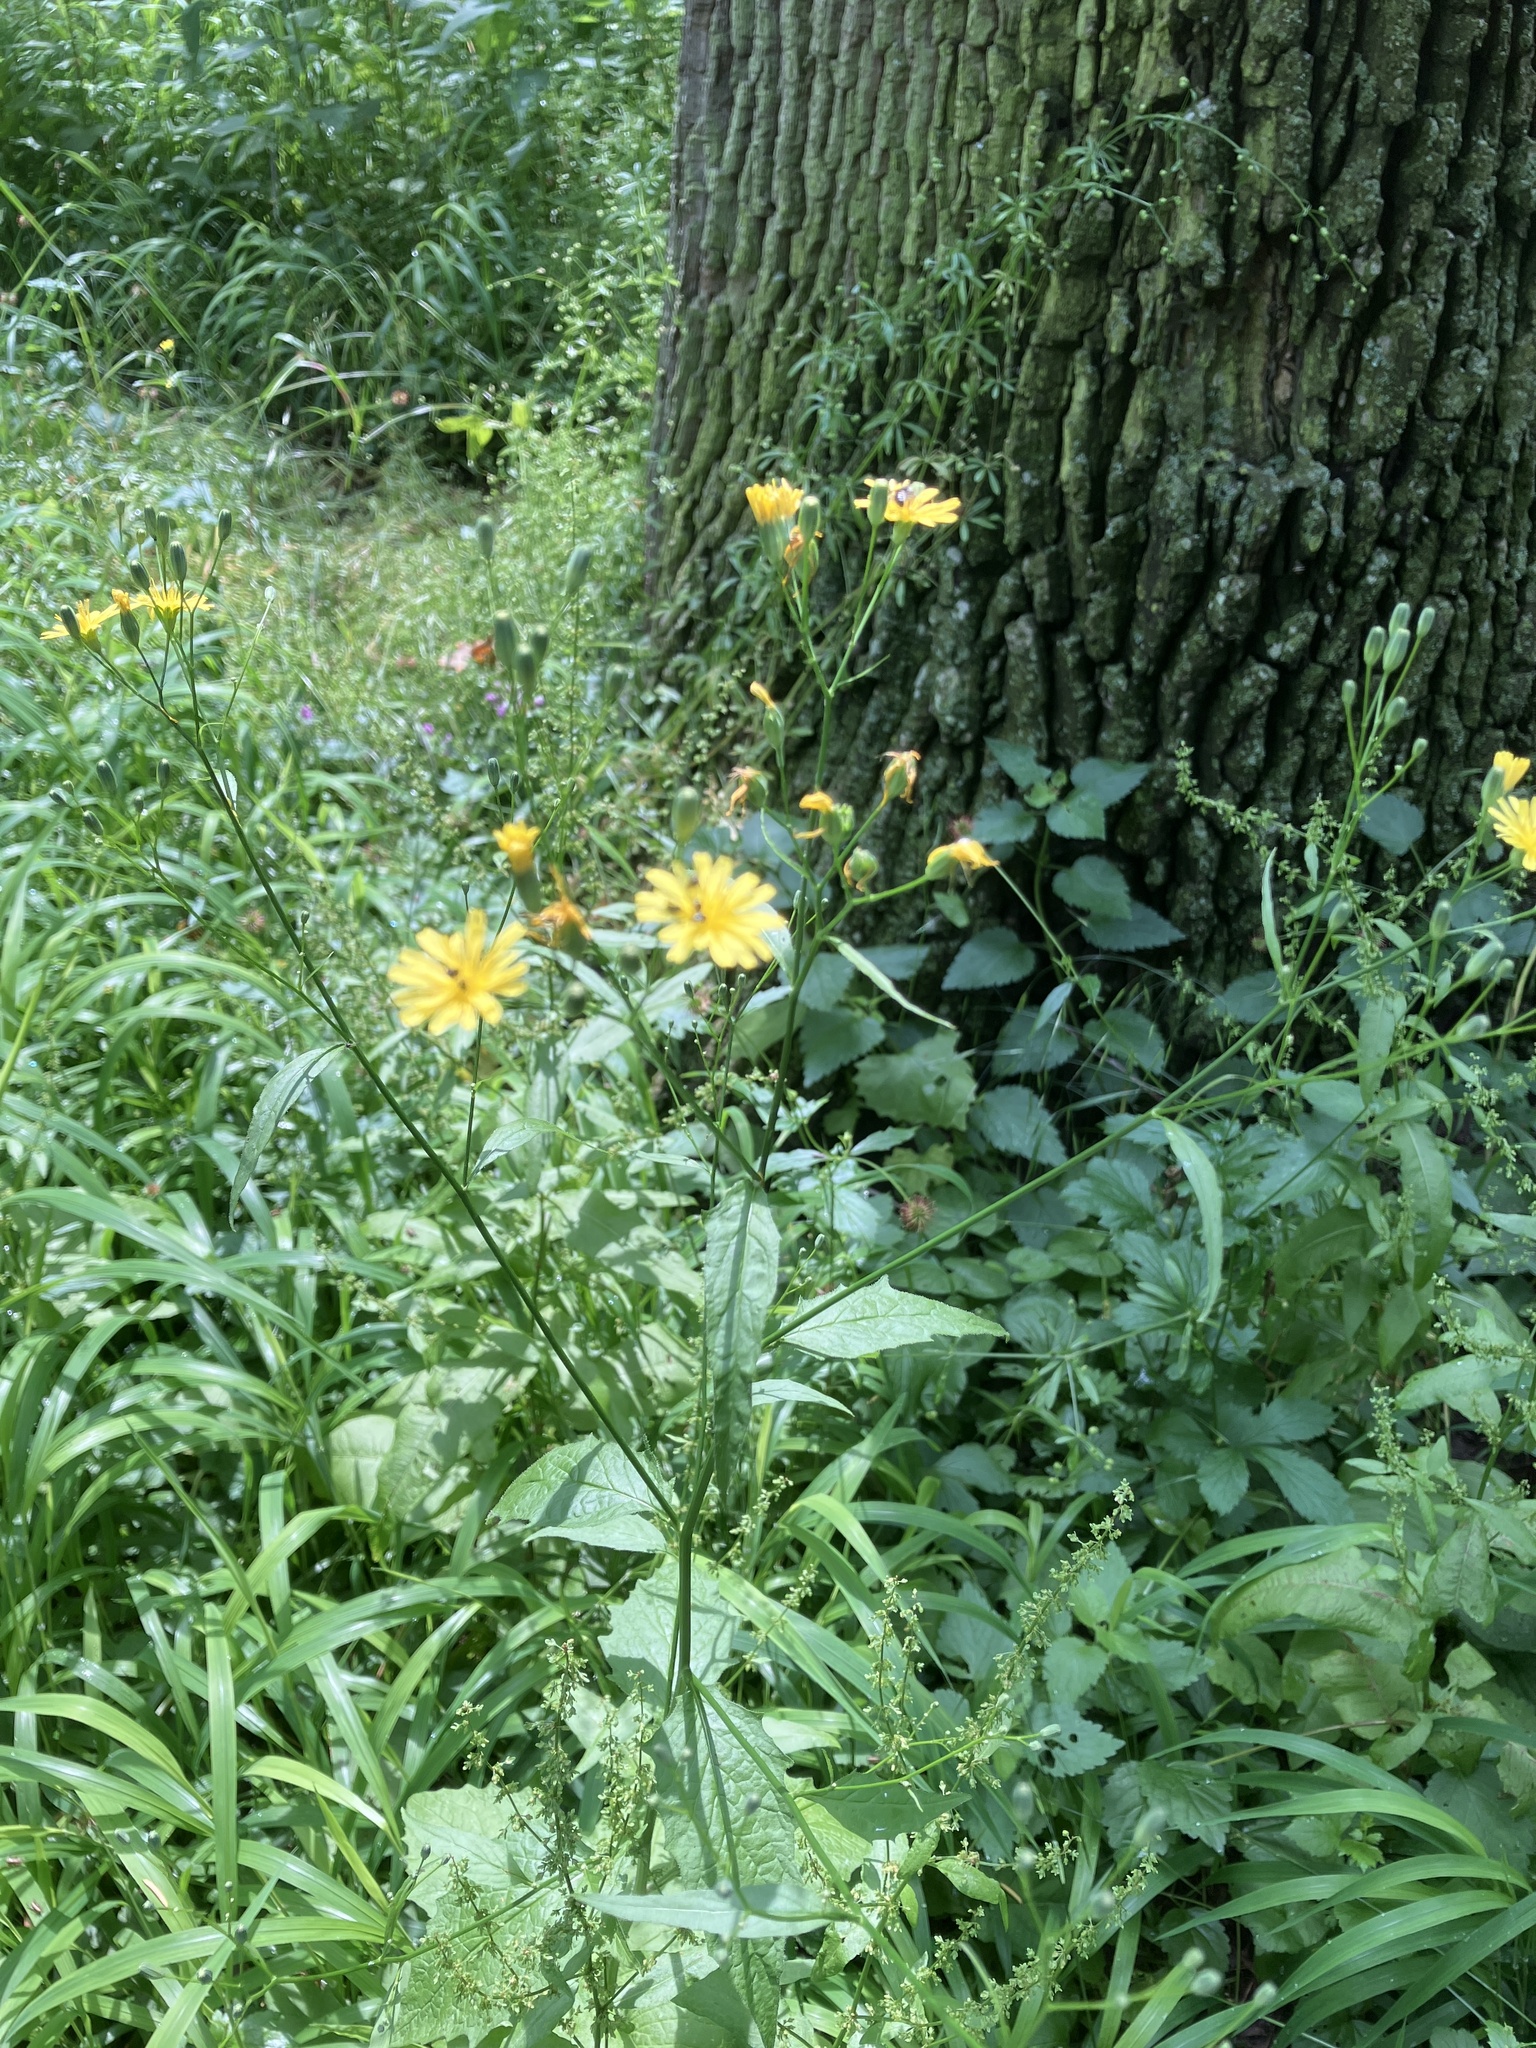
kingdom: Plantae
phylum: Tracheophyta
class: Magnoliopsida
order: Asterales
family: Asteraceae
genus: Lapsana
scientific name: Lapsana communis
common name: Nipplewort
